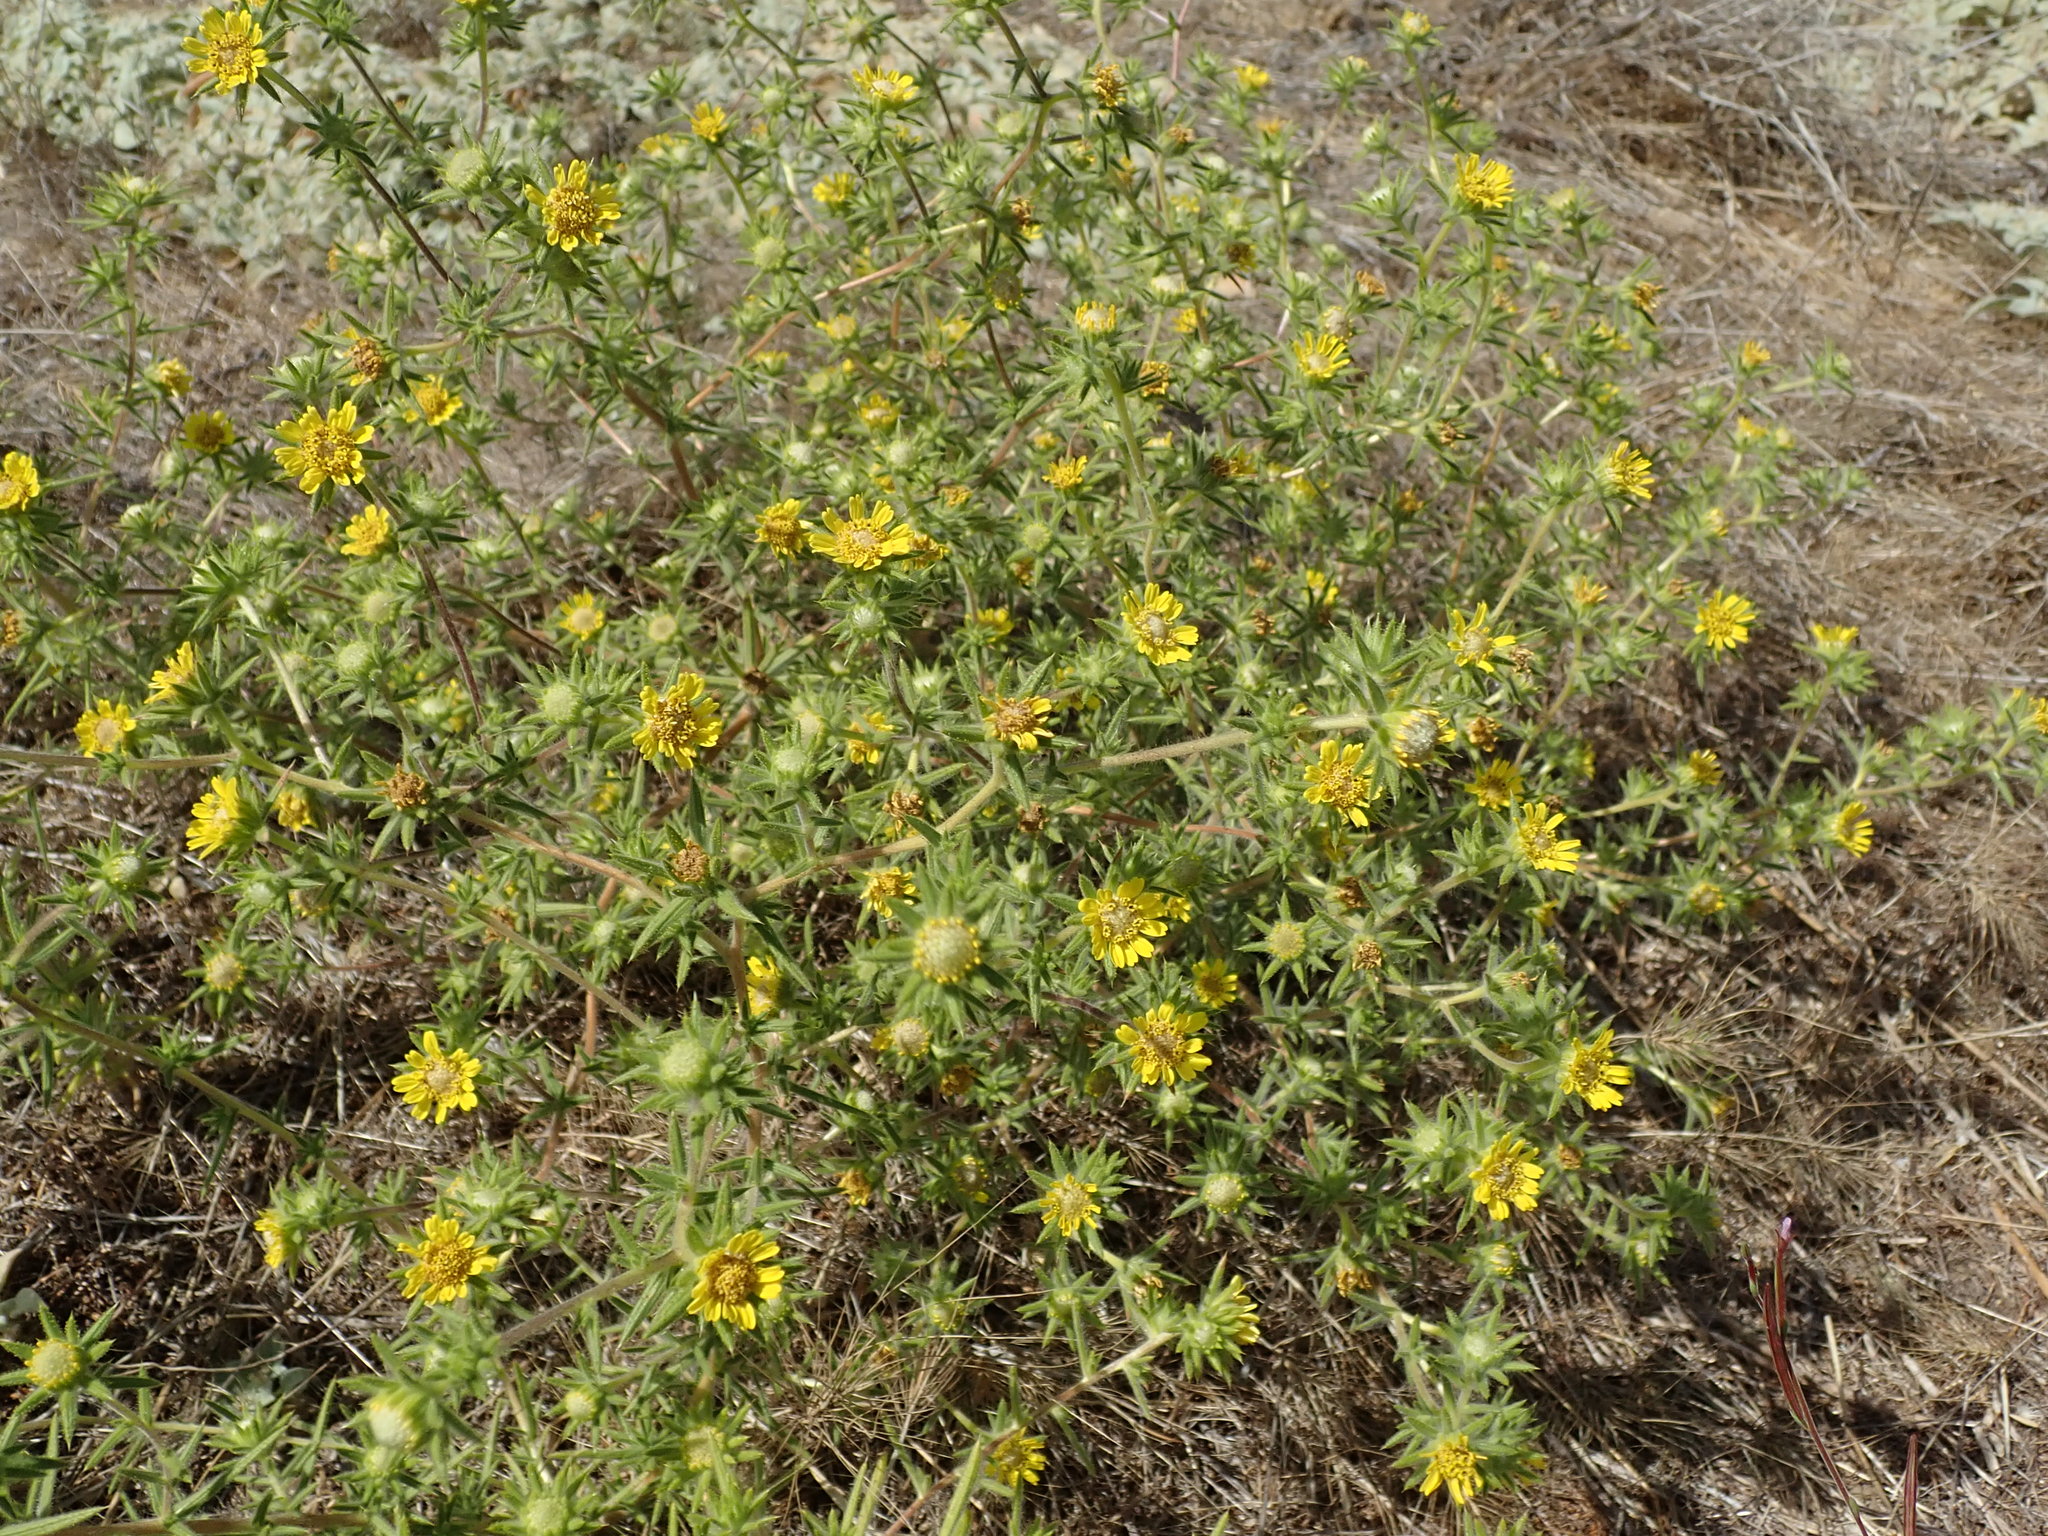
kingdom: Plantae
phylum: Tracheophyta
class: Magnoliopsida
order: Asterales
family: Asteraceae
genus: Centromadia
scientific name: Centromadia fitchii
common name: Fitch's spikeweed
